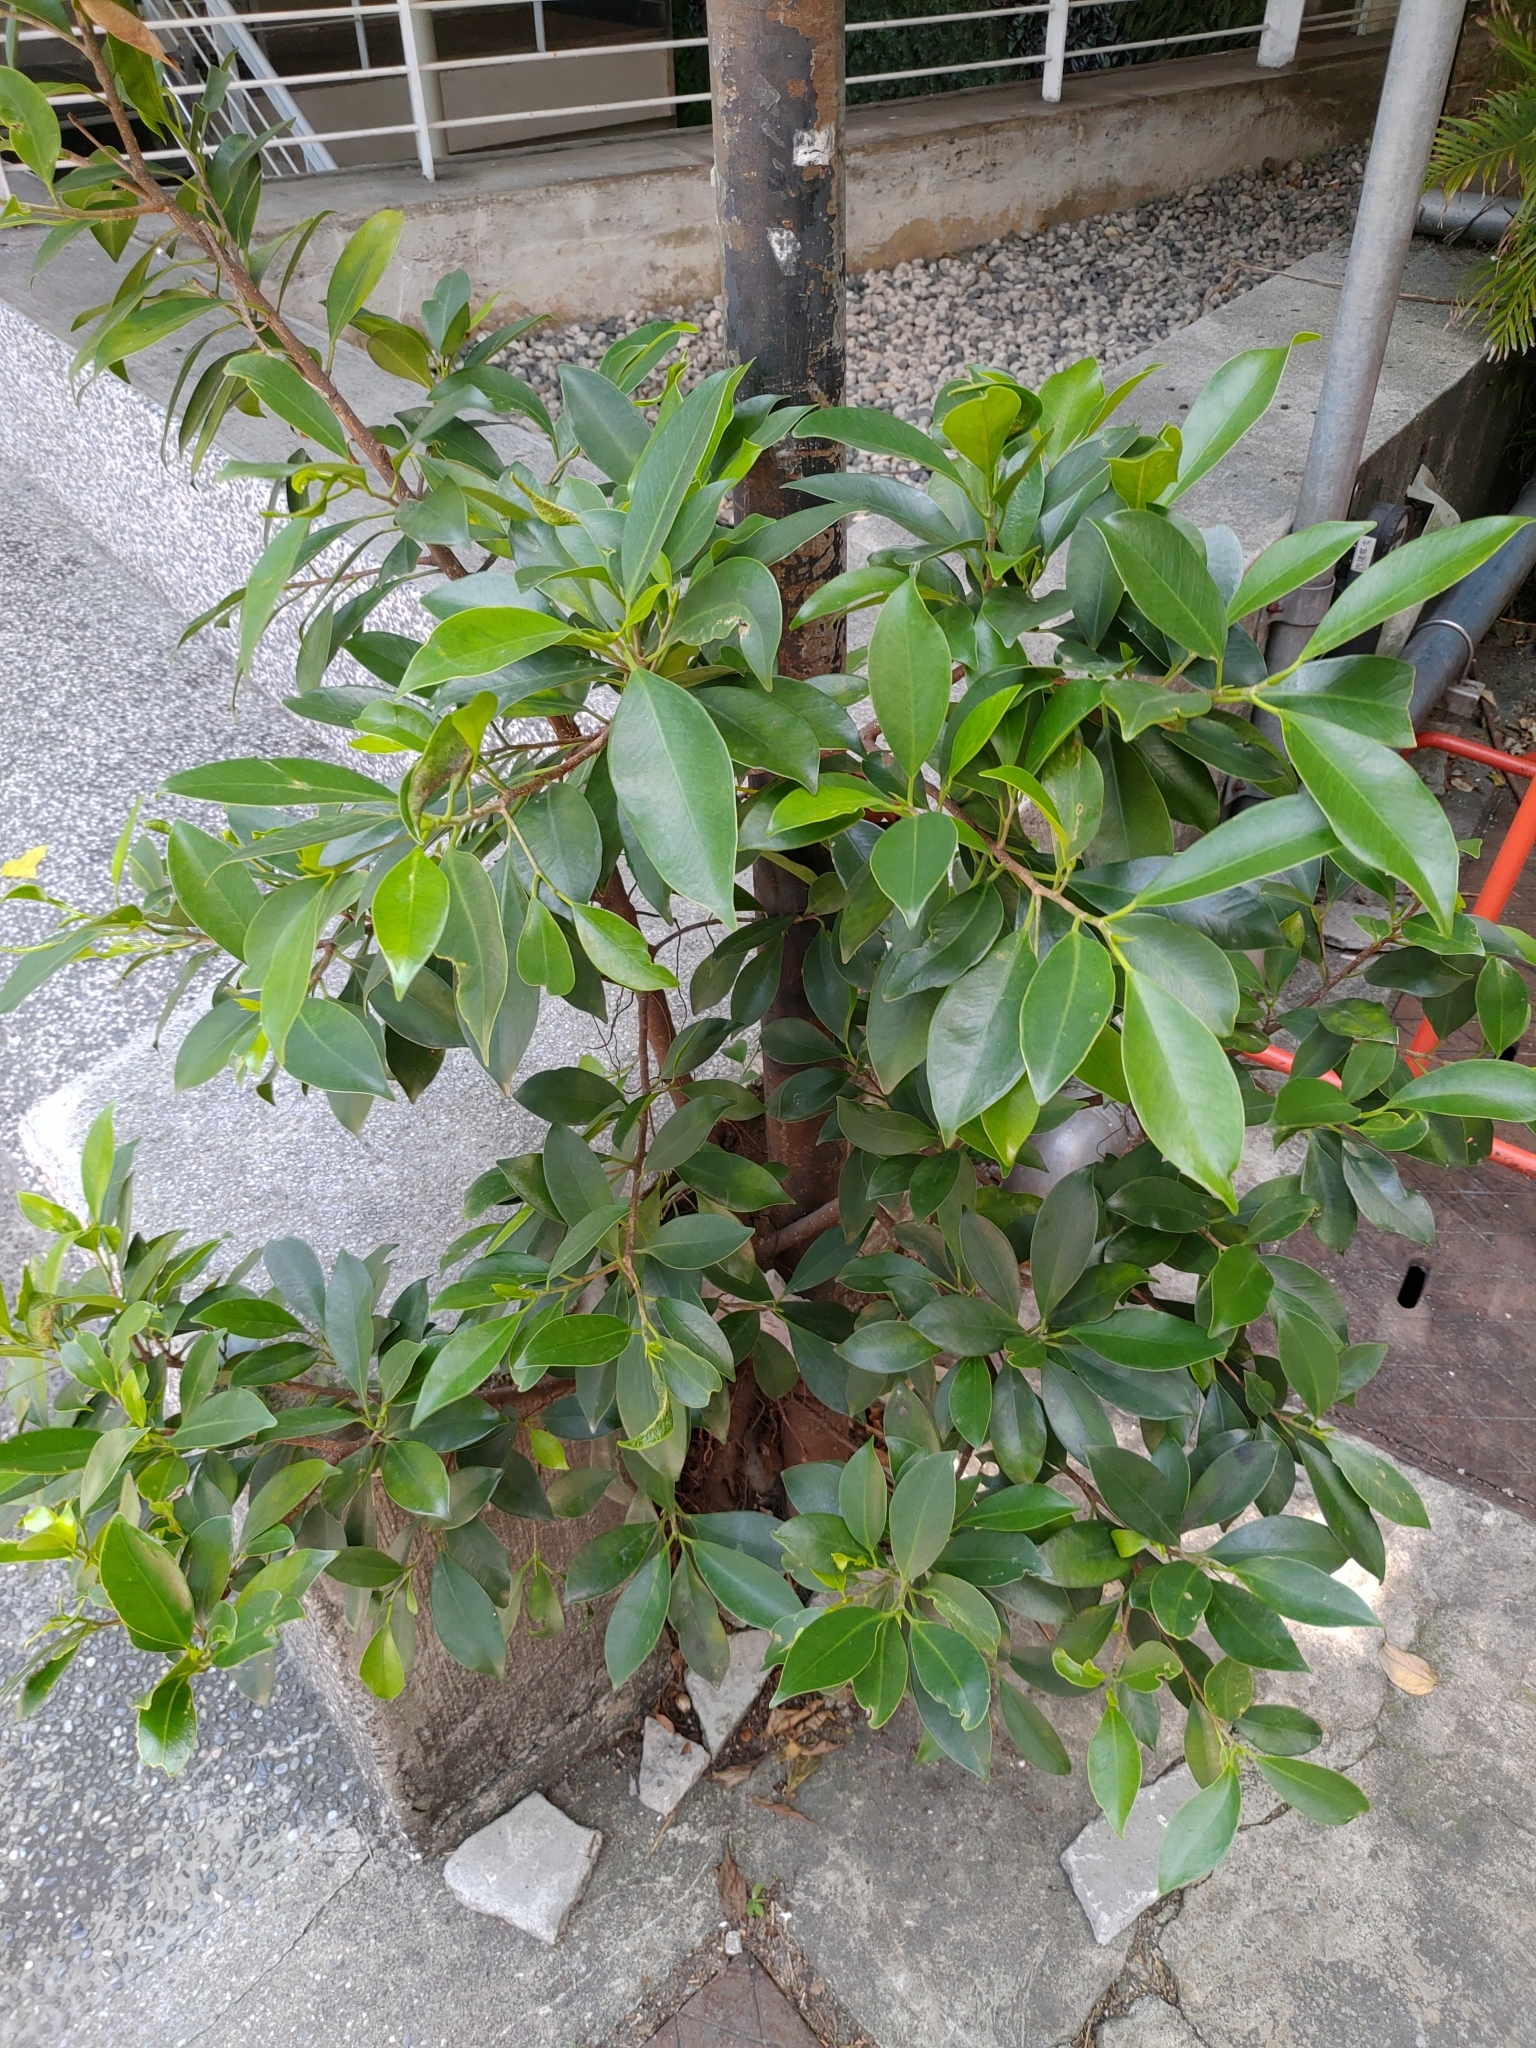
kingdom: Plantae
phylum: Tracheophyta
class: Magnoliopsida
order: Rosales
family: Moraceae
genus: Ficus
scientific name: Ficus microcarpa
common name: Chinese banyan
